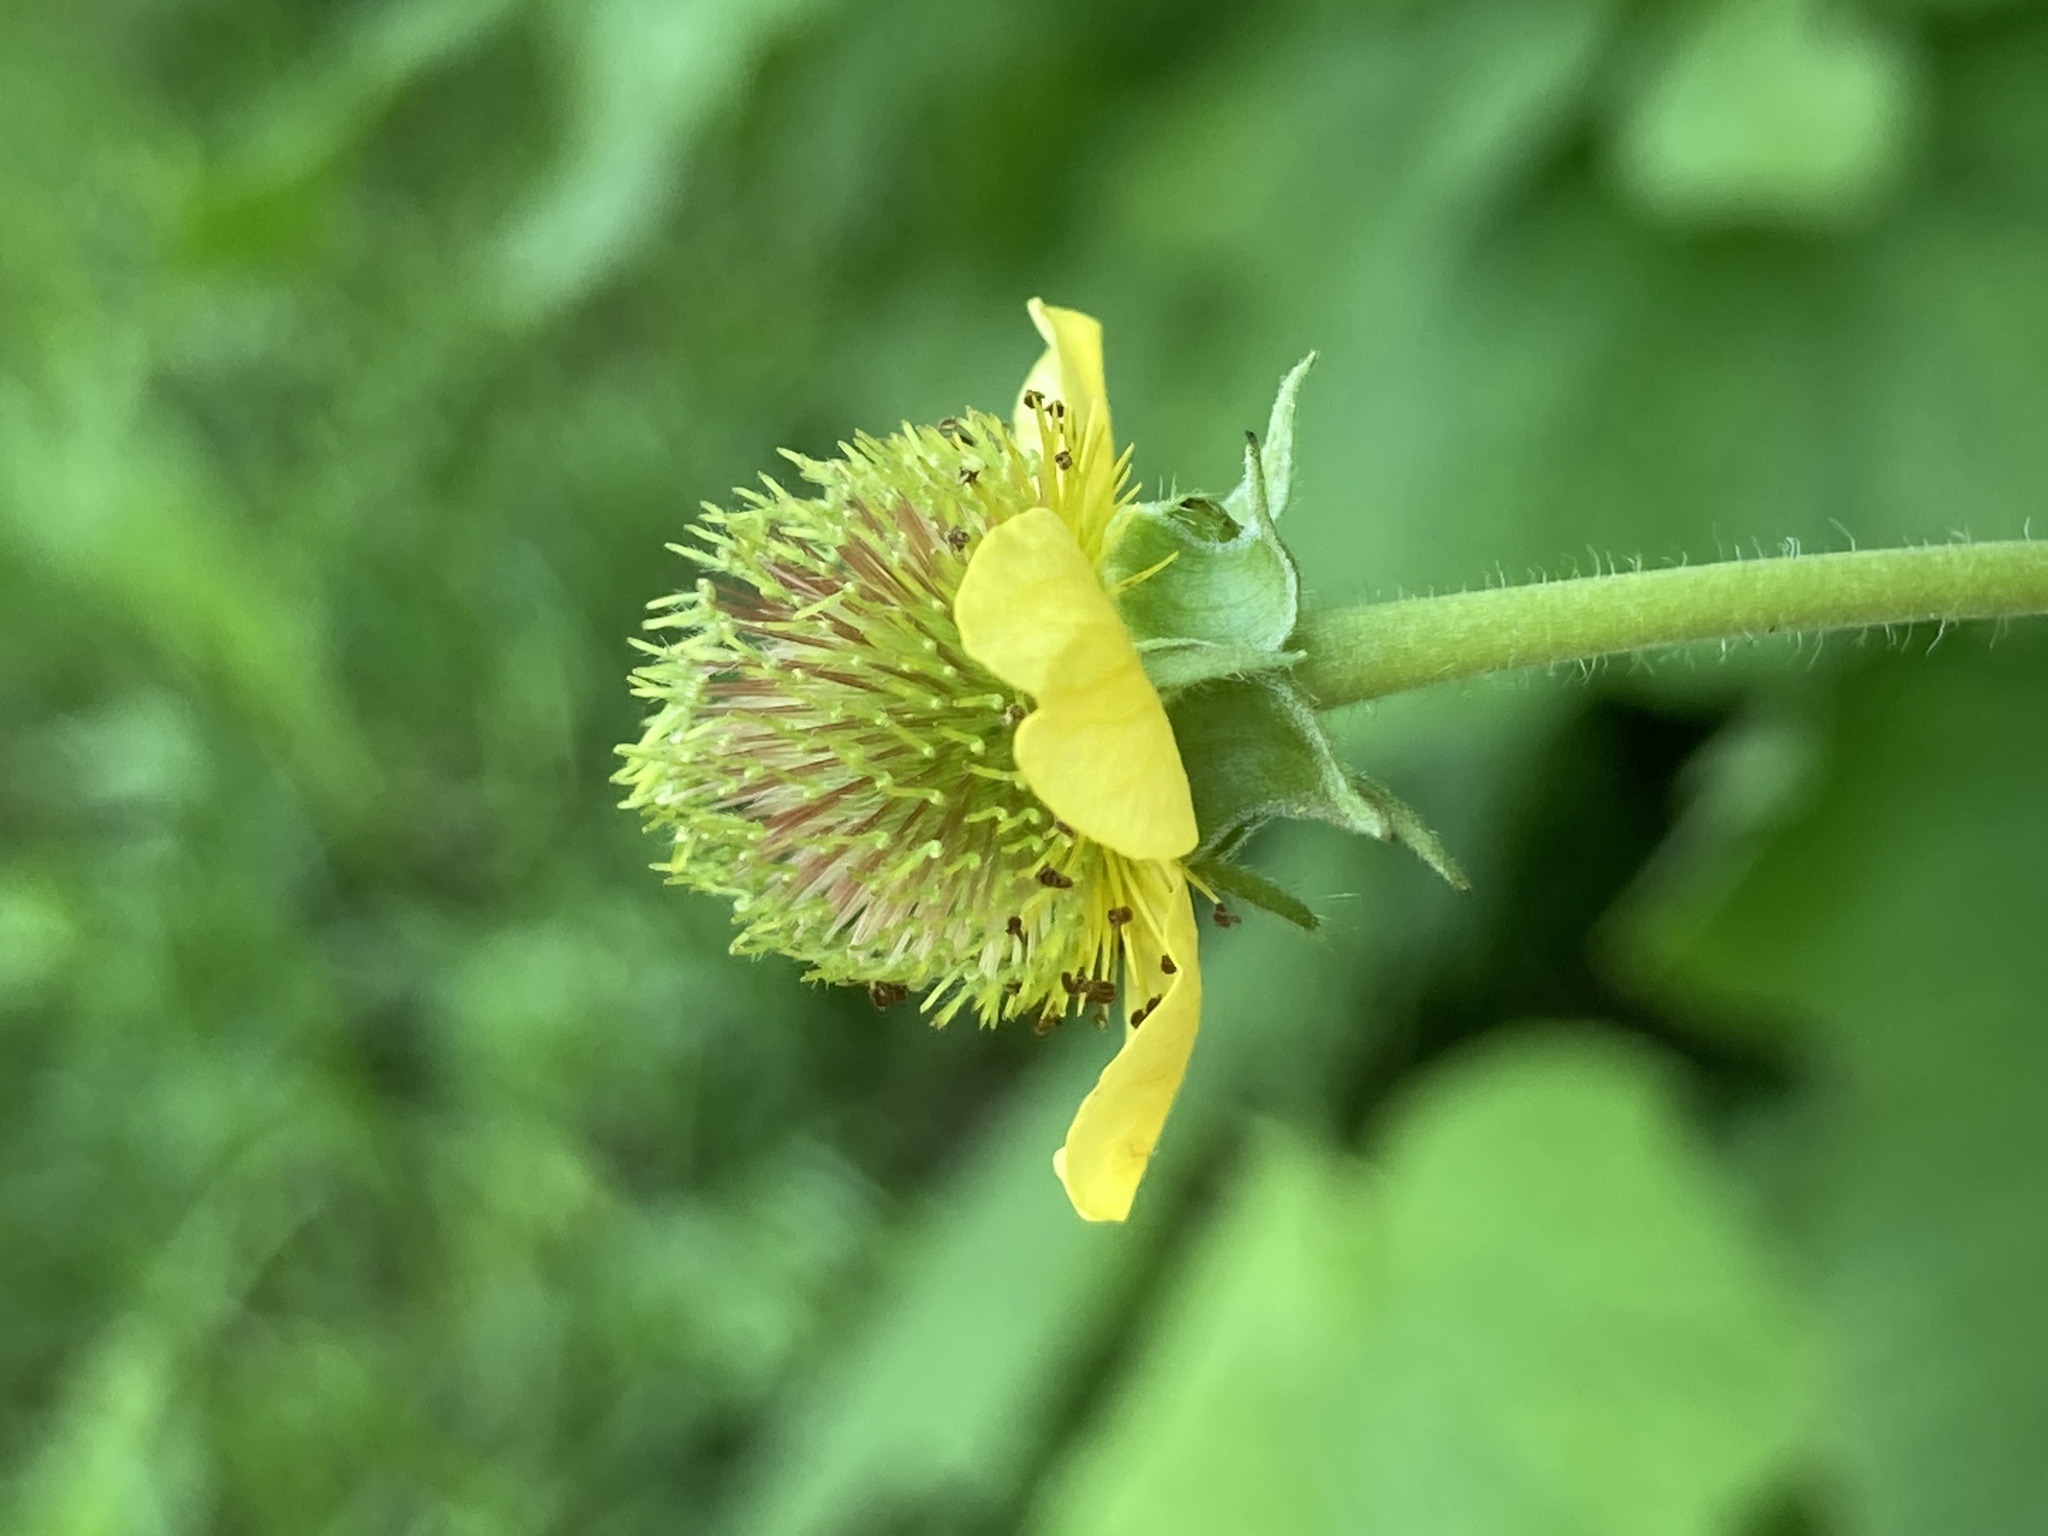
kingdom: Plantae
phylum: Tracheophyta
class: Magnoliopsida
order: Rosales
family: Rosaceae
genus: Geum
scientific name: Geum aleppicum
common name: Yellow avens
